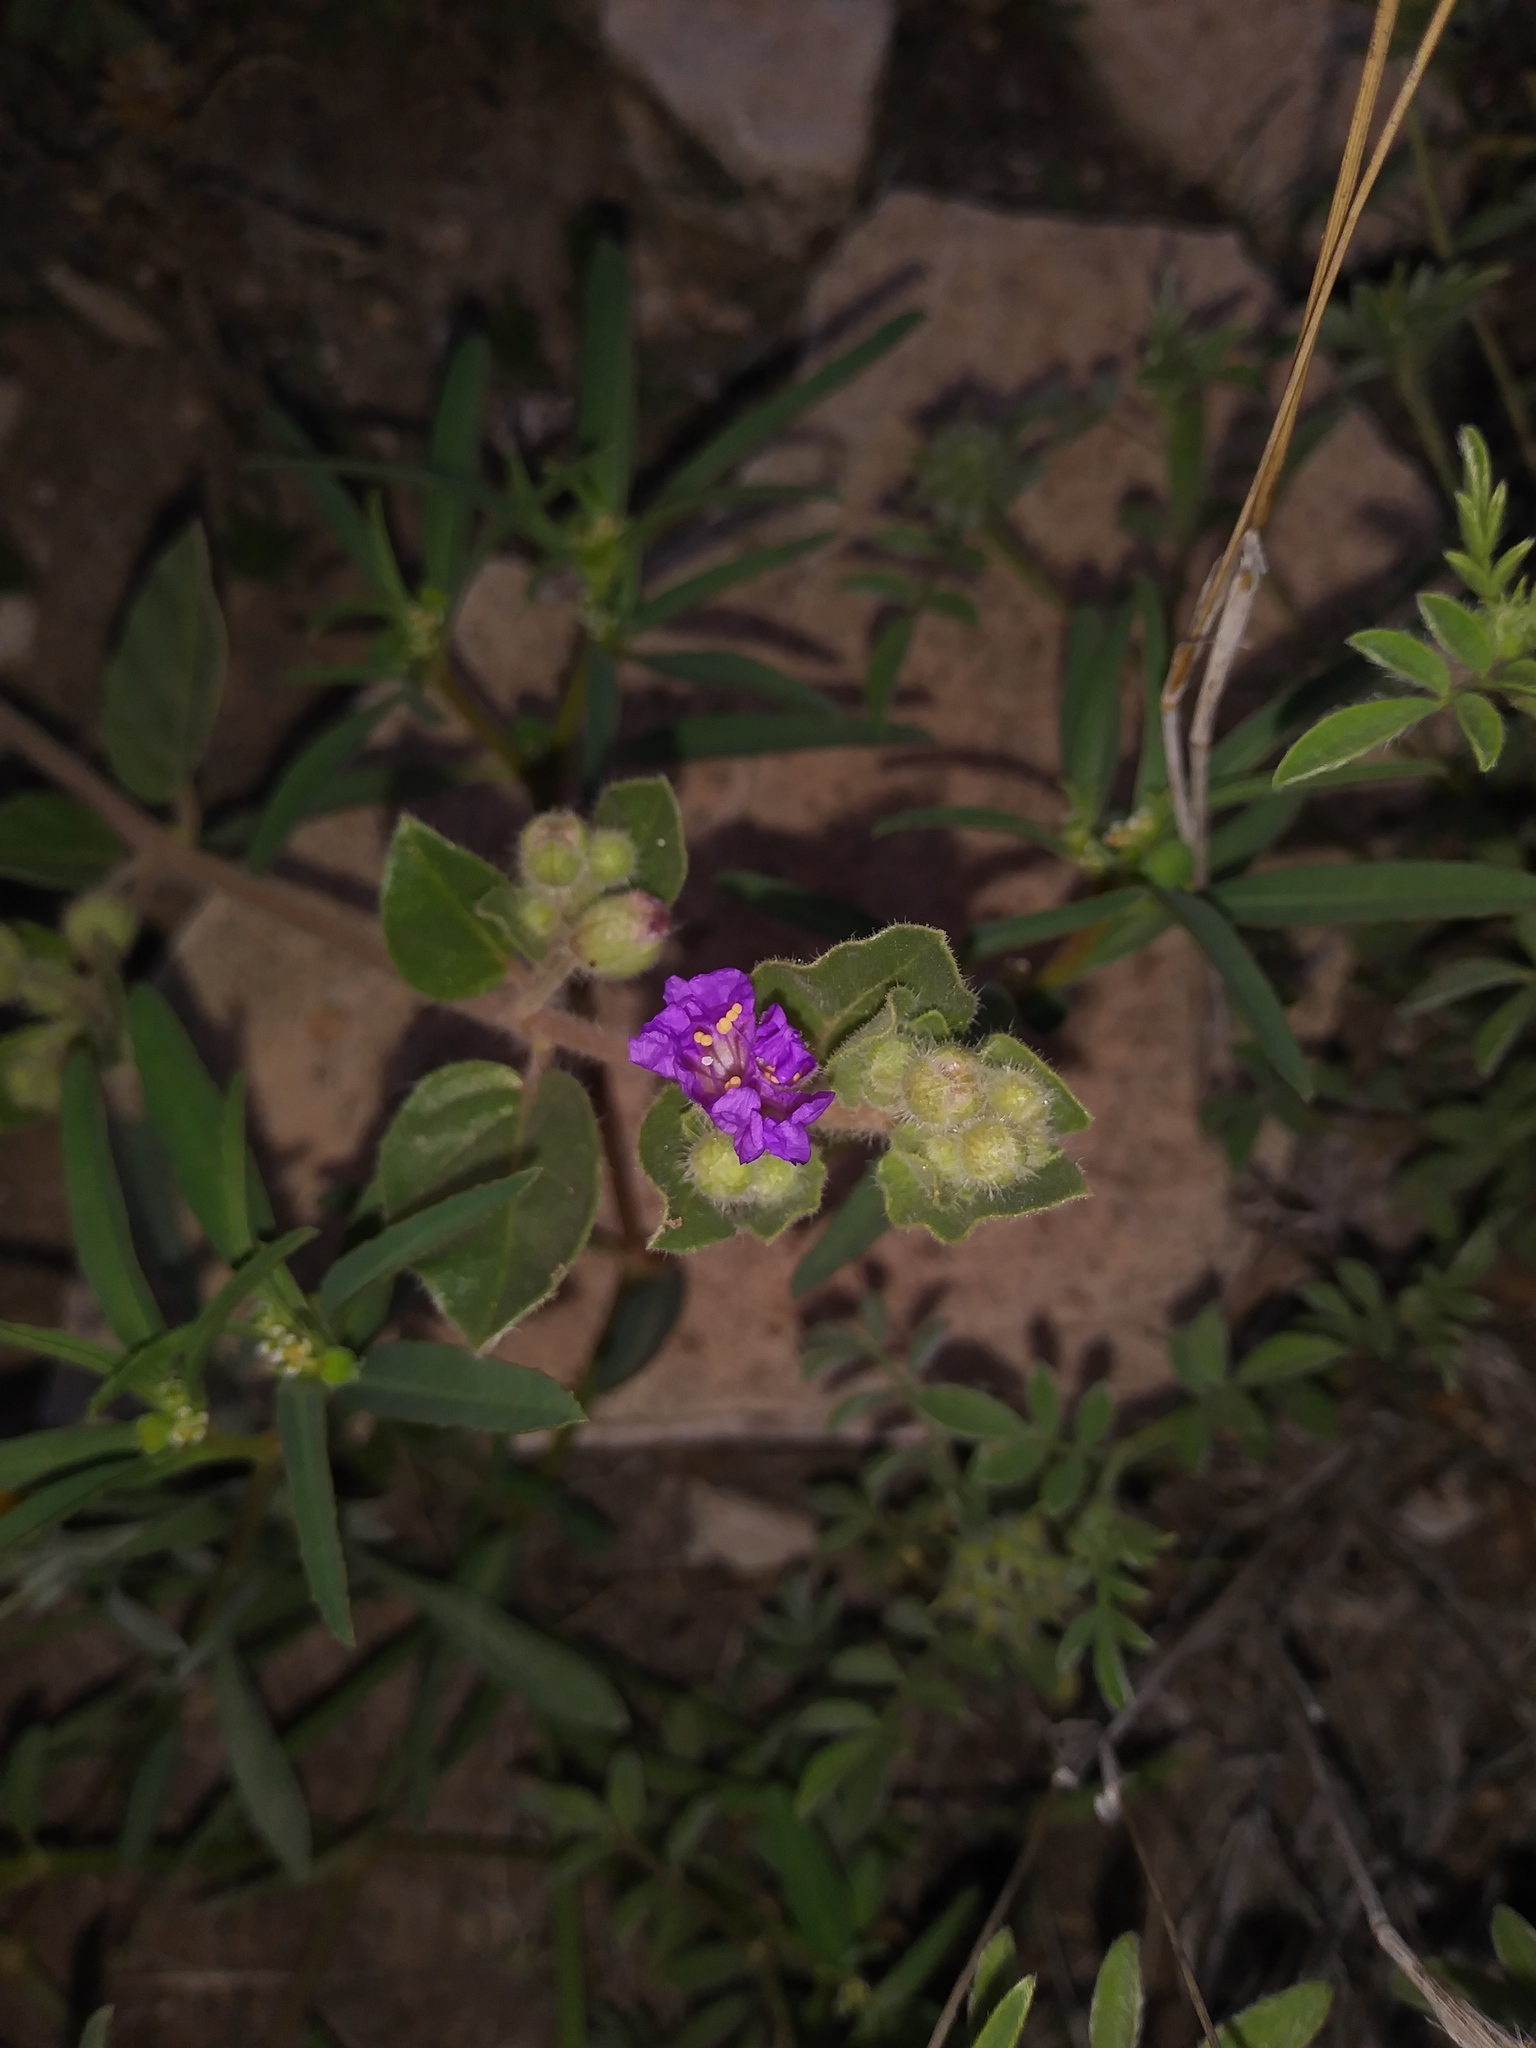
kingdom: Plantae
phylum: Tracheophyta
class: Magnoliopsida
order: Caryophyllales
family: Nyctaginaceae
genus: Allionia
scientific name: Allionia incarnata
